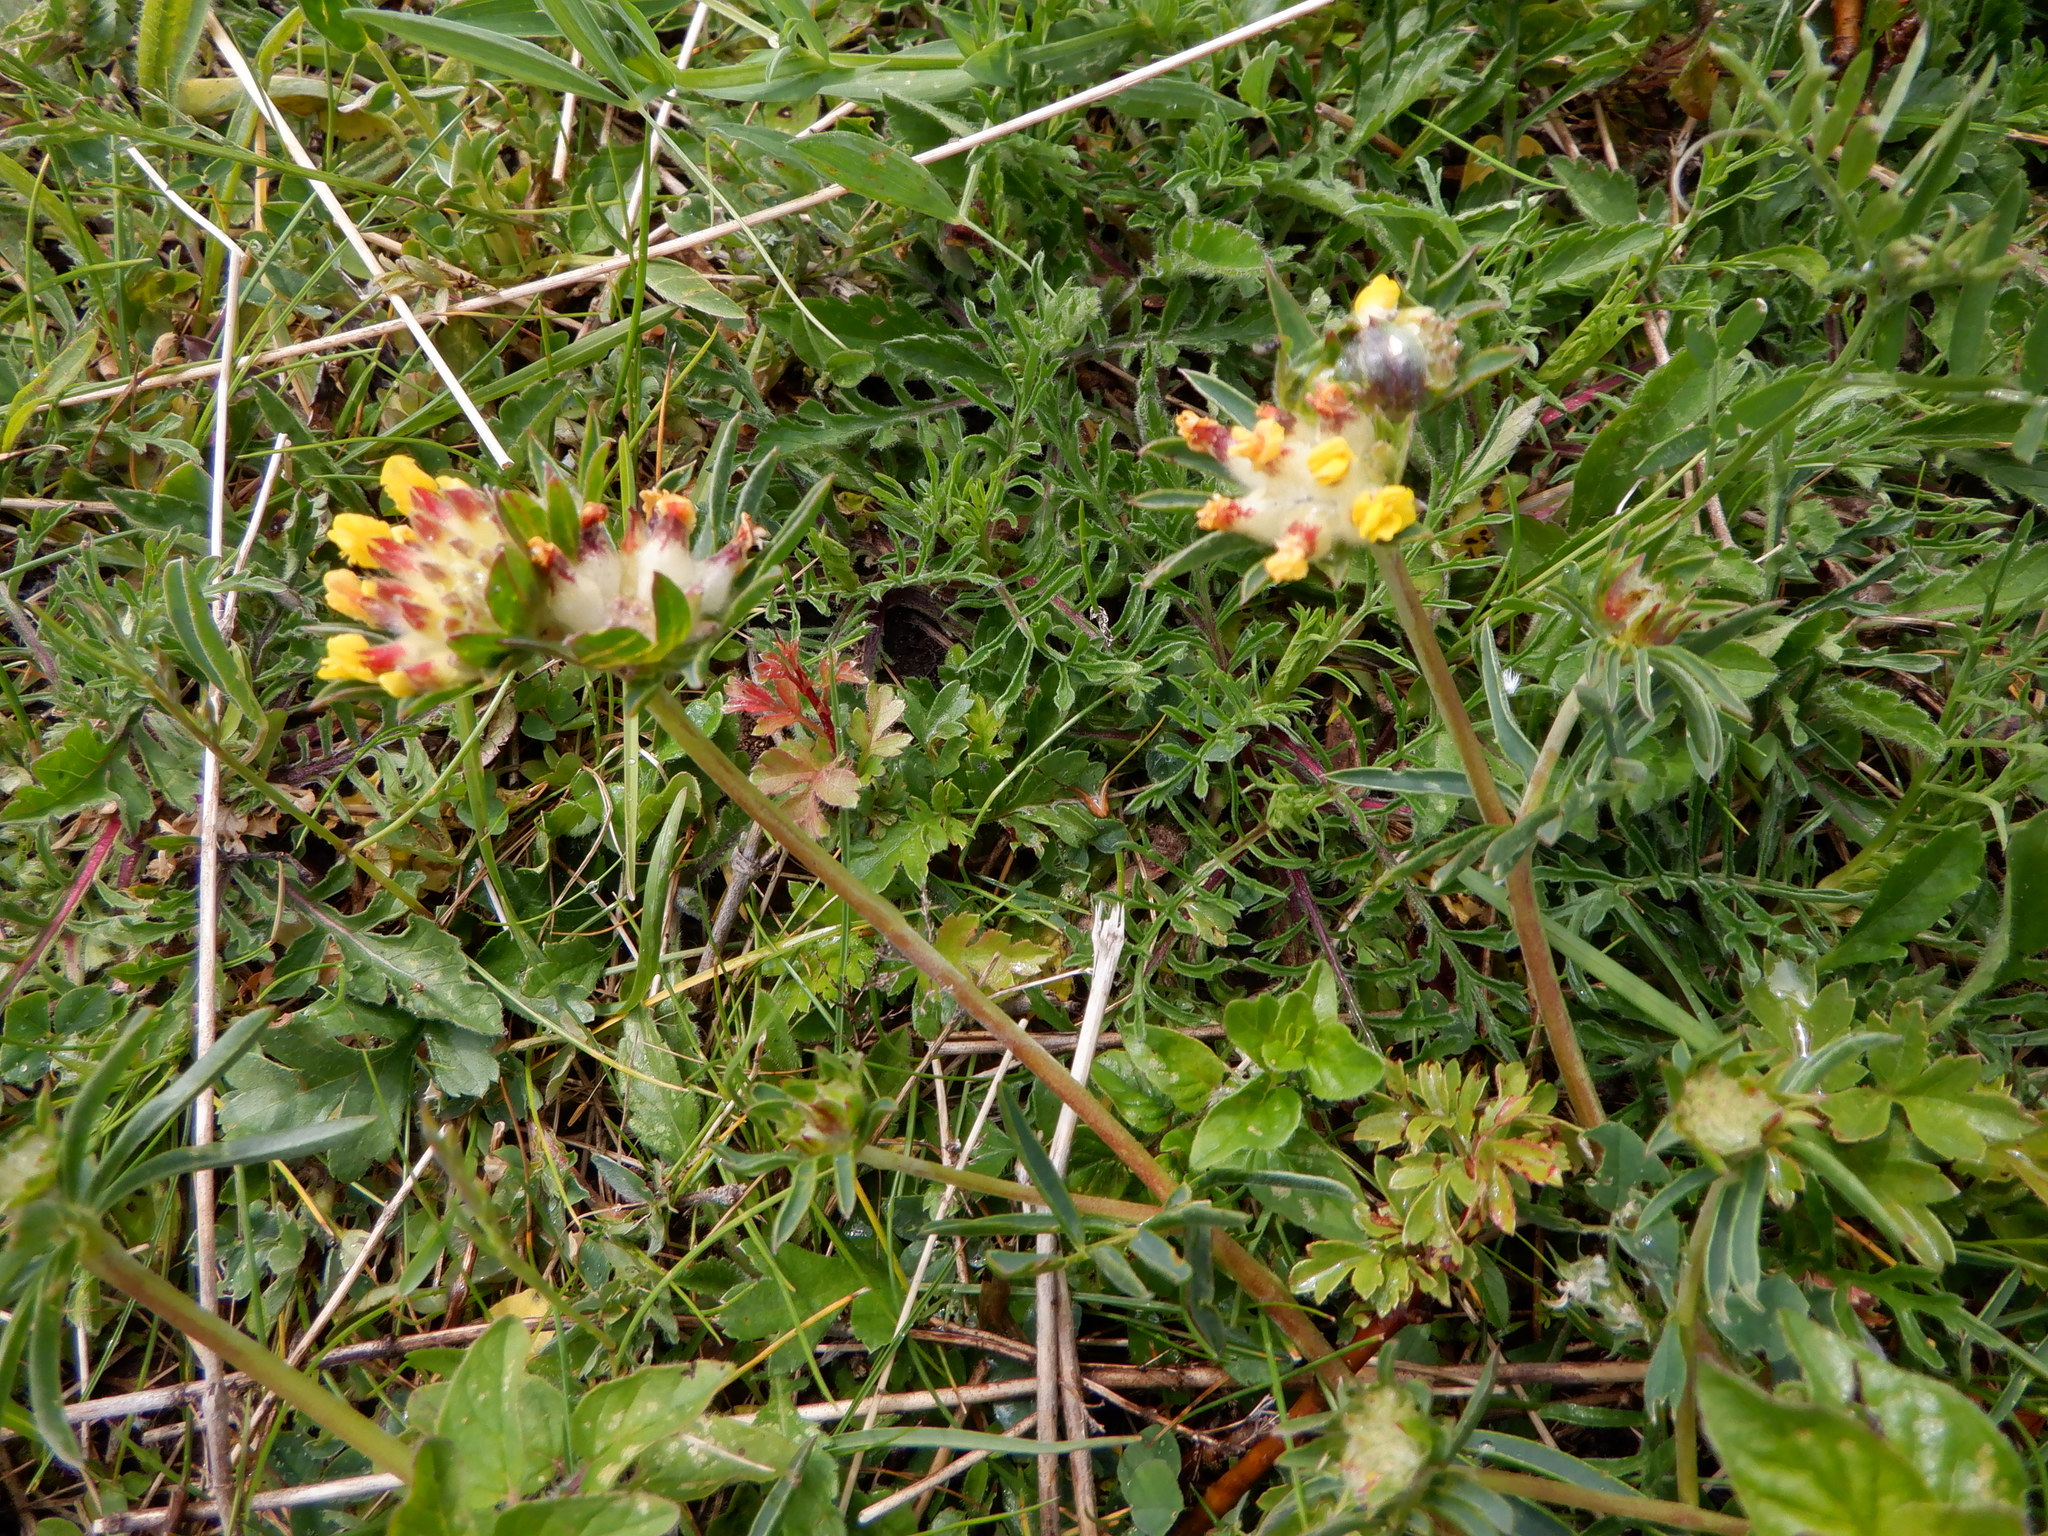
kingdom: Plantae
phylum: Tracheophyta
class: Magnoliopsida
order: Fabales
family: Fabaceae
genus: Anthyllis
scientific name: Anthyllis vulneraria
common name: Kidney vetch
